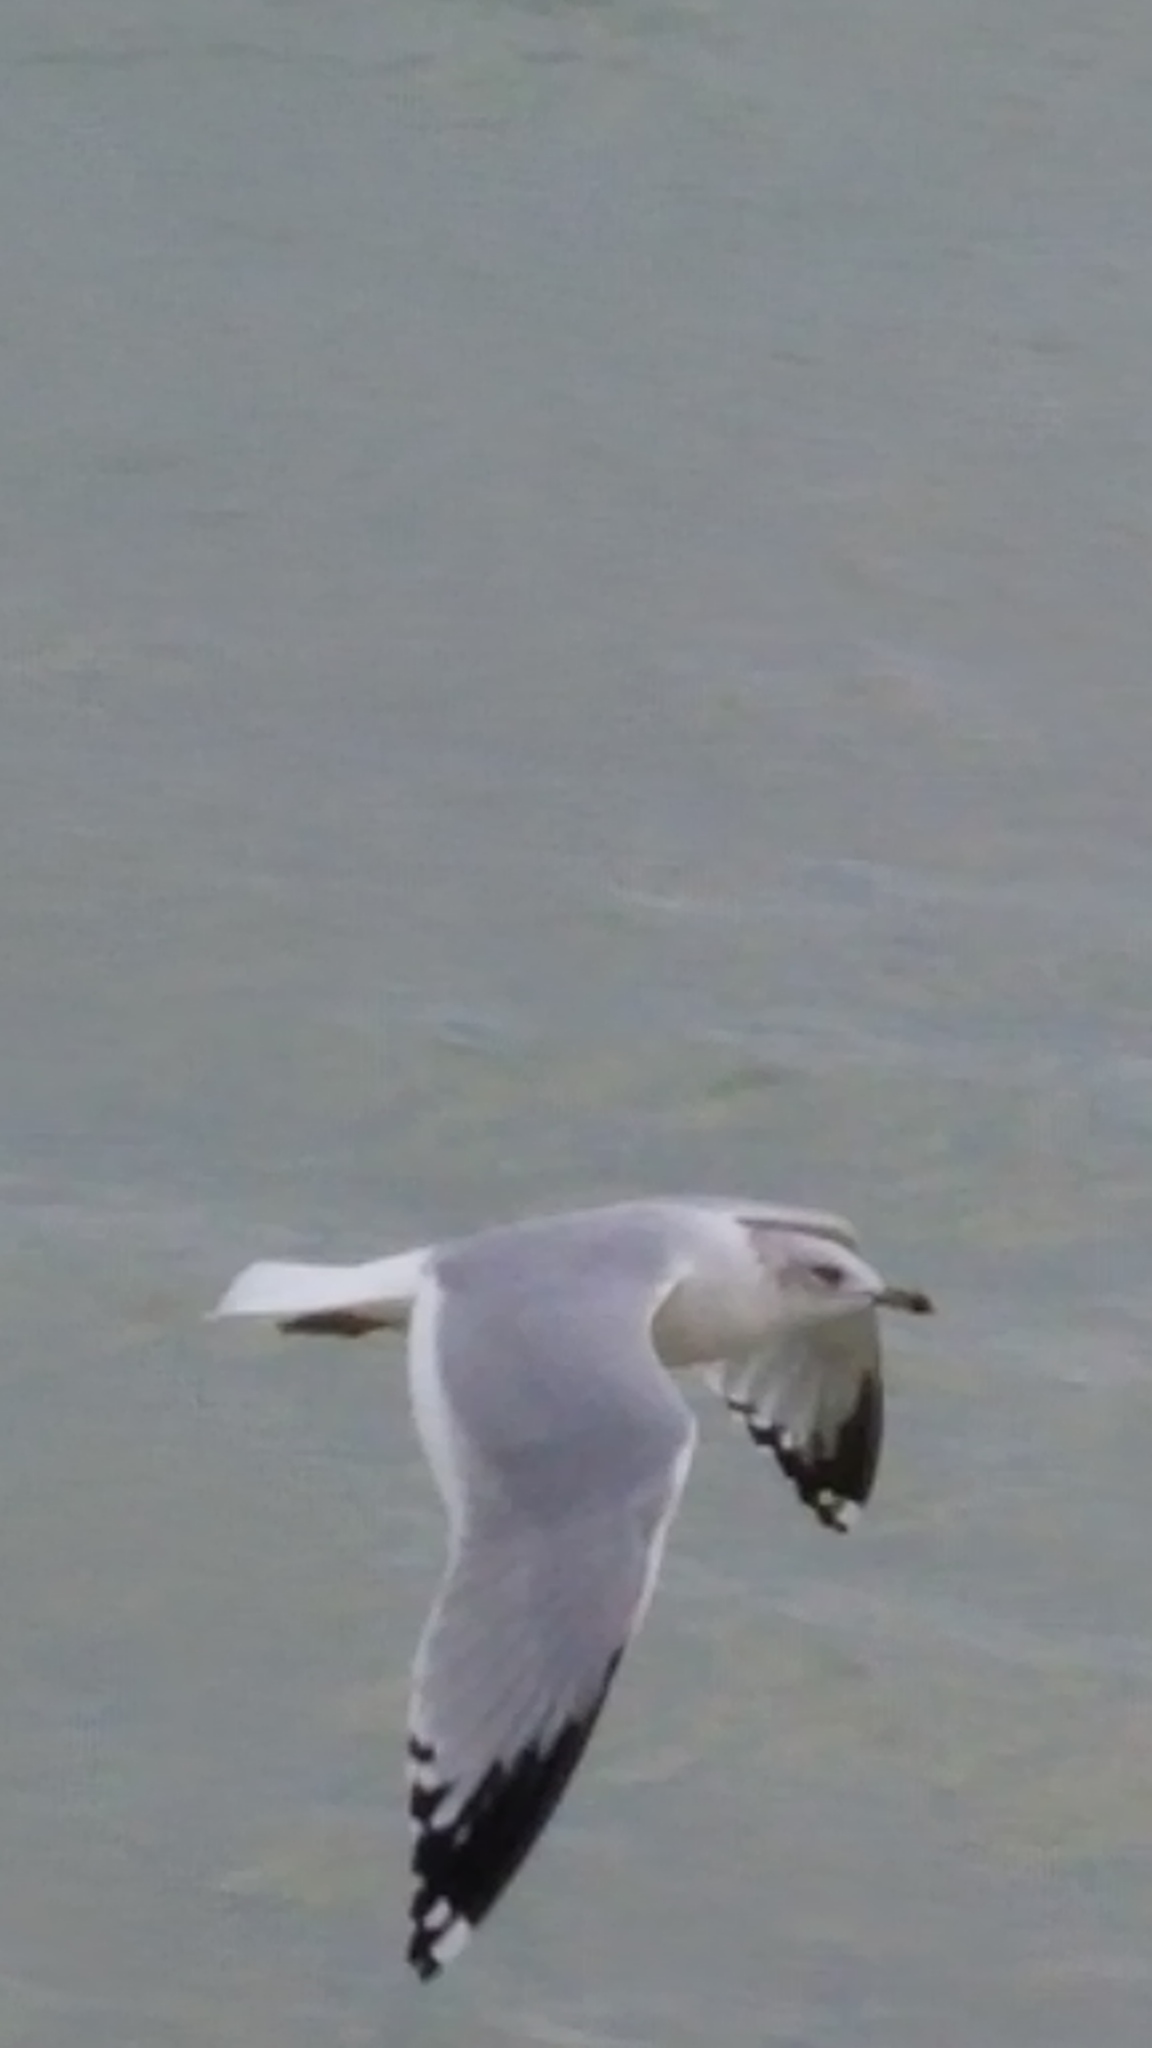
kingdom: Animalia
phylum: Chordata
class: Aves
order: Charadriiformes
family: Laridae
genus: Larus
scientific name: Larus delawarensis
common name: Ring-billed gull
